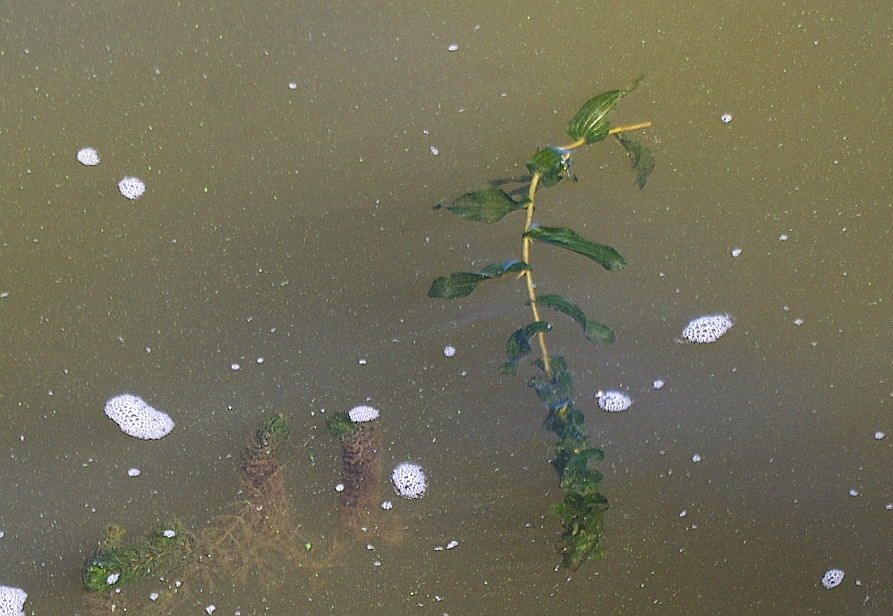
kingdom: Plantae
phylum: Tracheophyta
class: Liliopsida
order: Alismatales
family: Potamogetonaceae
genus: Potamogeton
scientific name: Potamogeton perfoliatus
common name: Perfoliate pondweed
